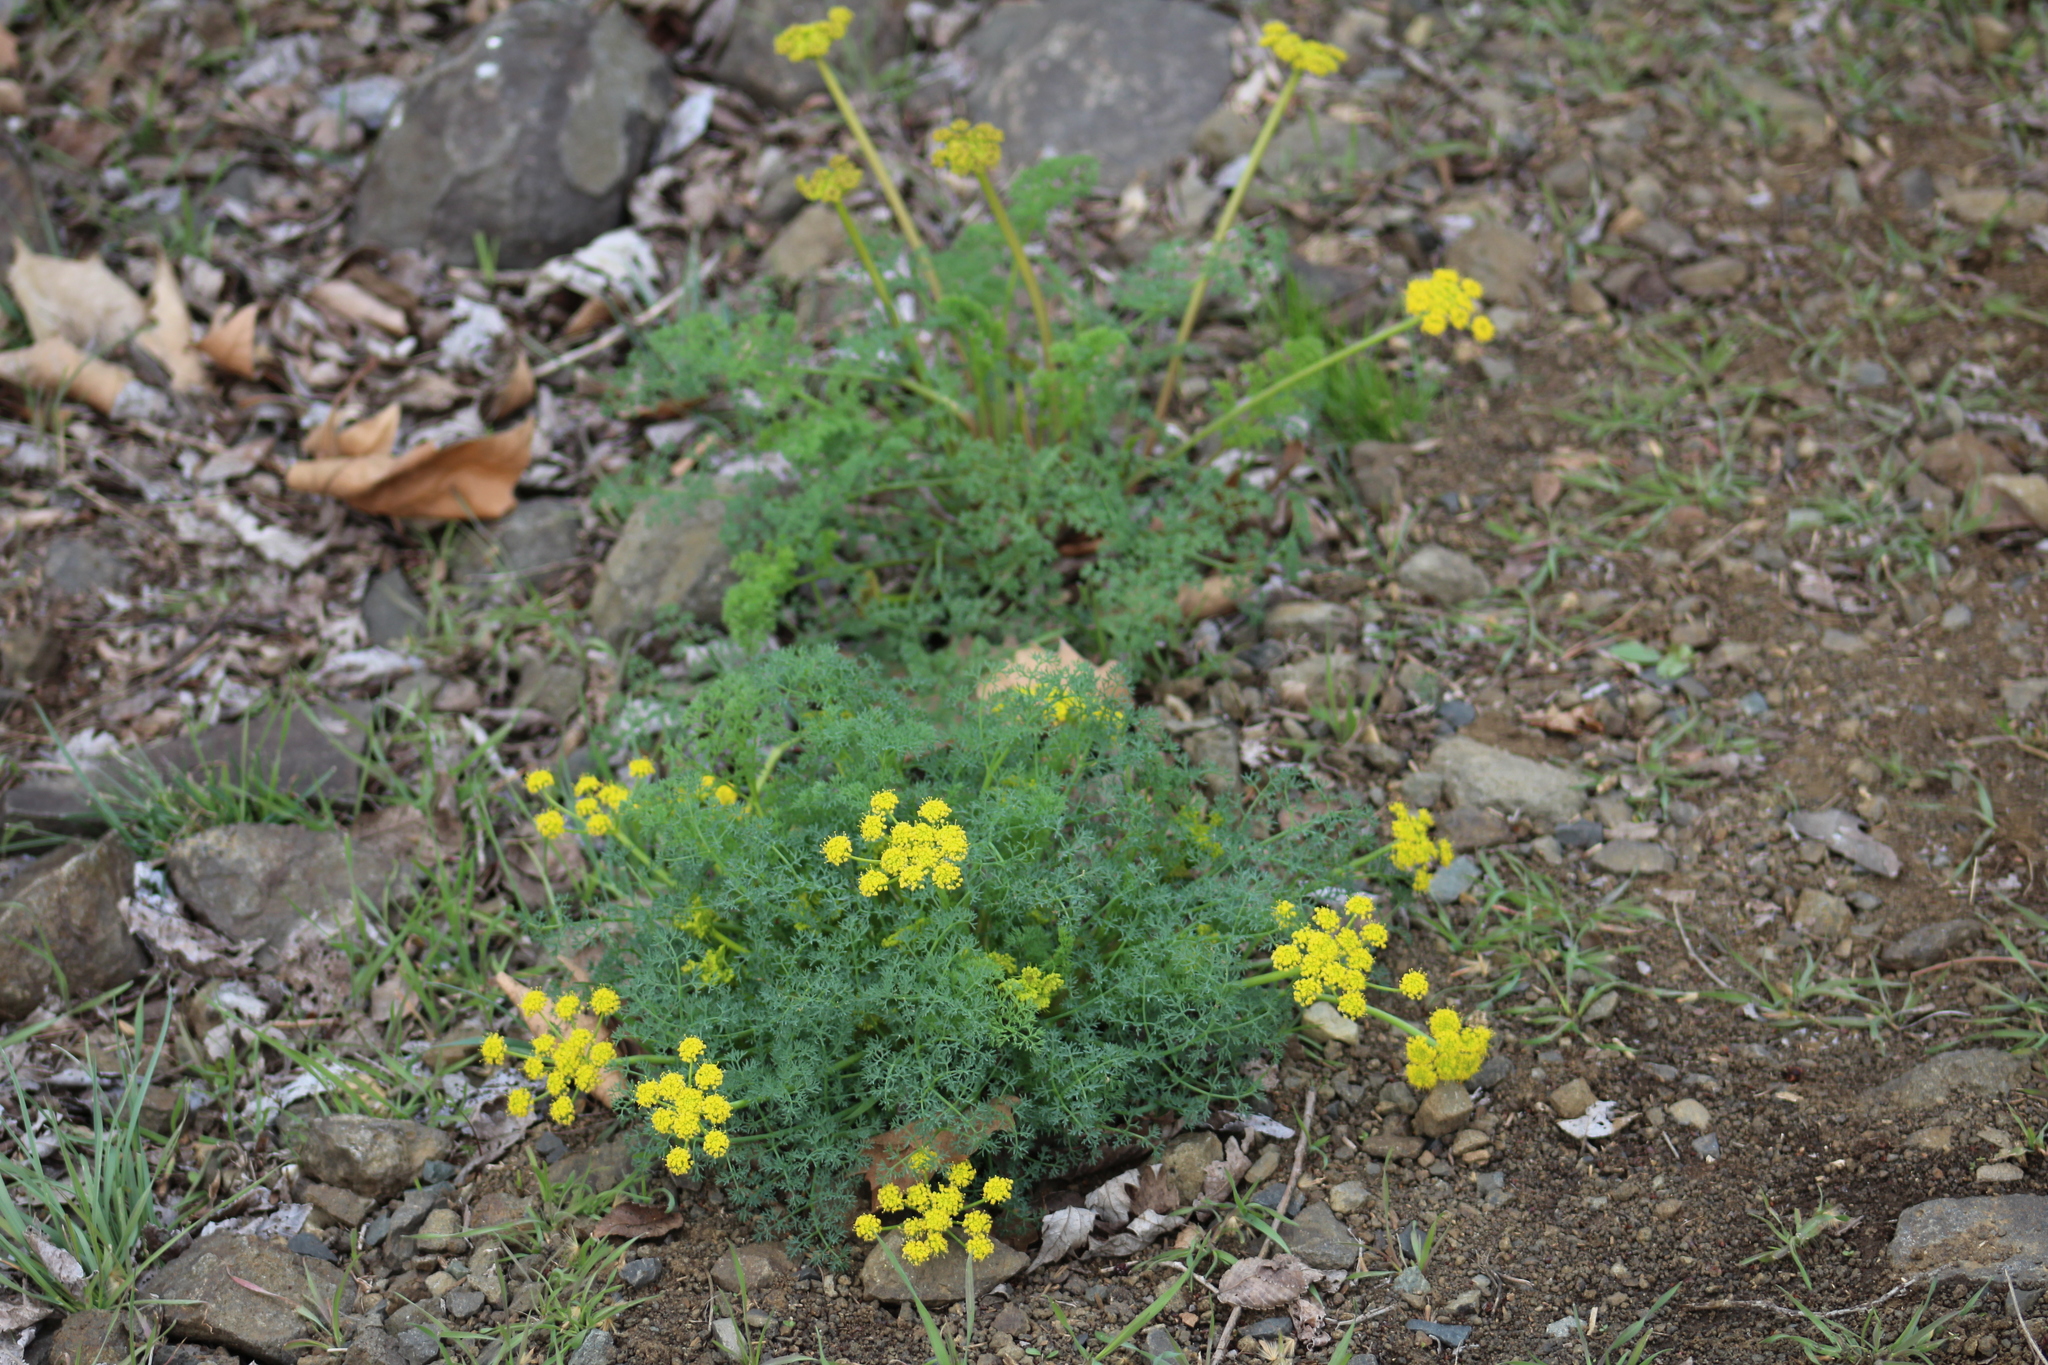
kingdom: Plantae
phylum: Tracheophyta
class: Magnoliopsida
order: Apiales
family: Apiaceae
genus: Lomatium
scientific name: Lomatium papilioniferum
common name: Butterfly lomatium
